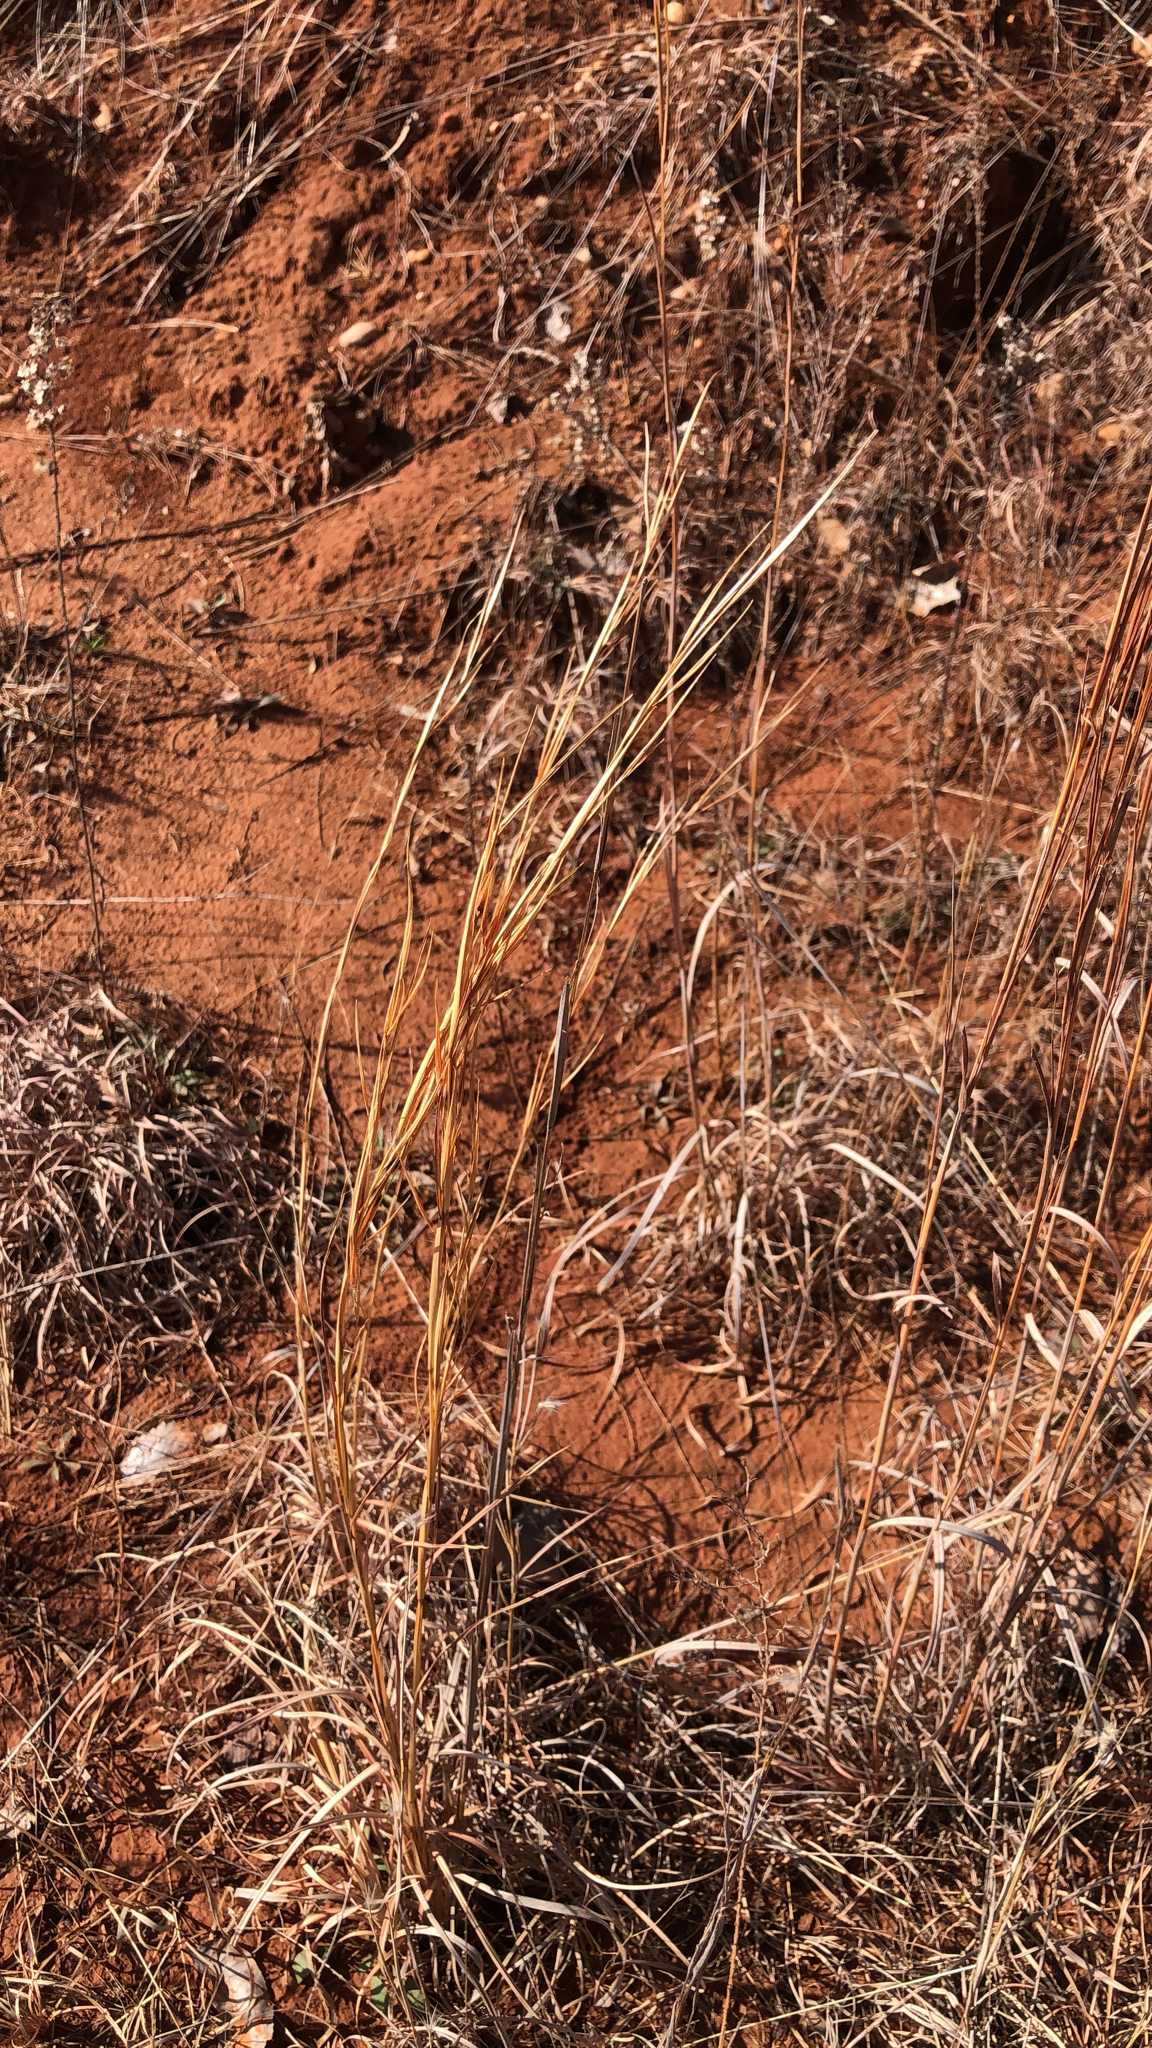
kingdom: Plantae
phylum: Tracheophyta
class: Liliopsida
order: Poales
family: Poaceae
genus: Andropogon
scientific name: Andropogon virginicus
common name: Broomsedge bluestem
